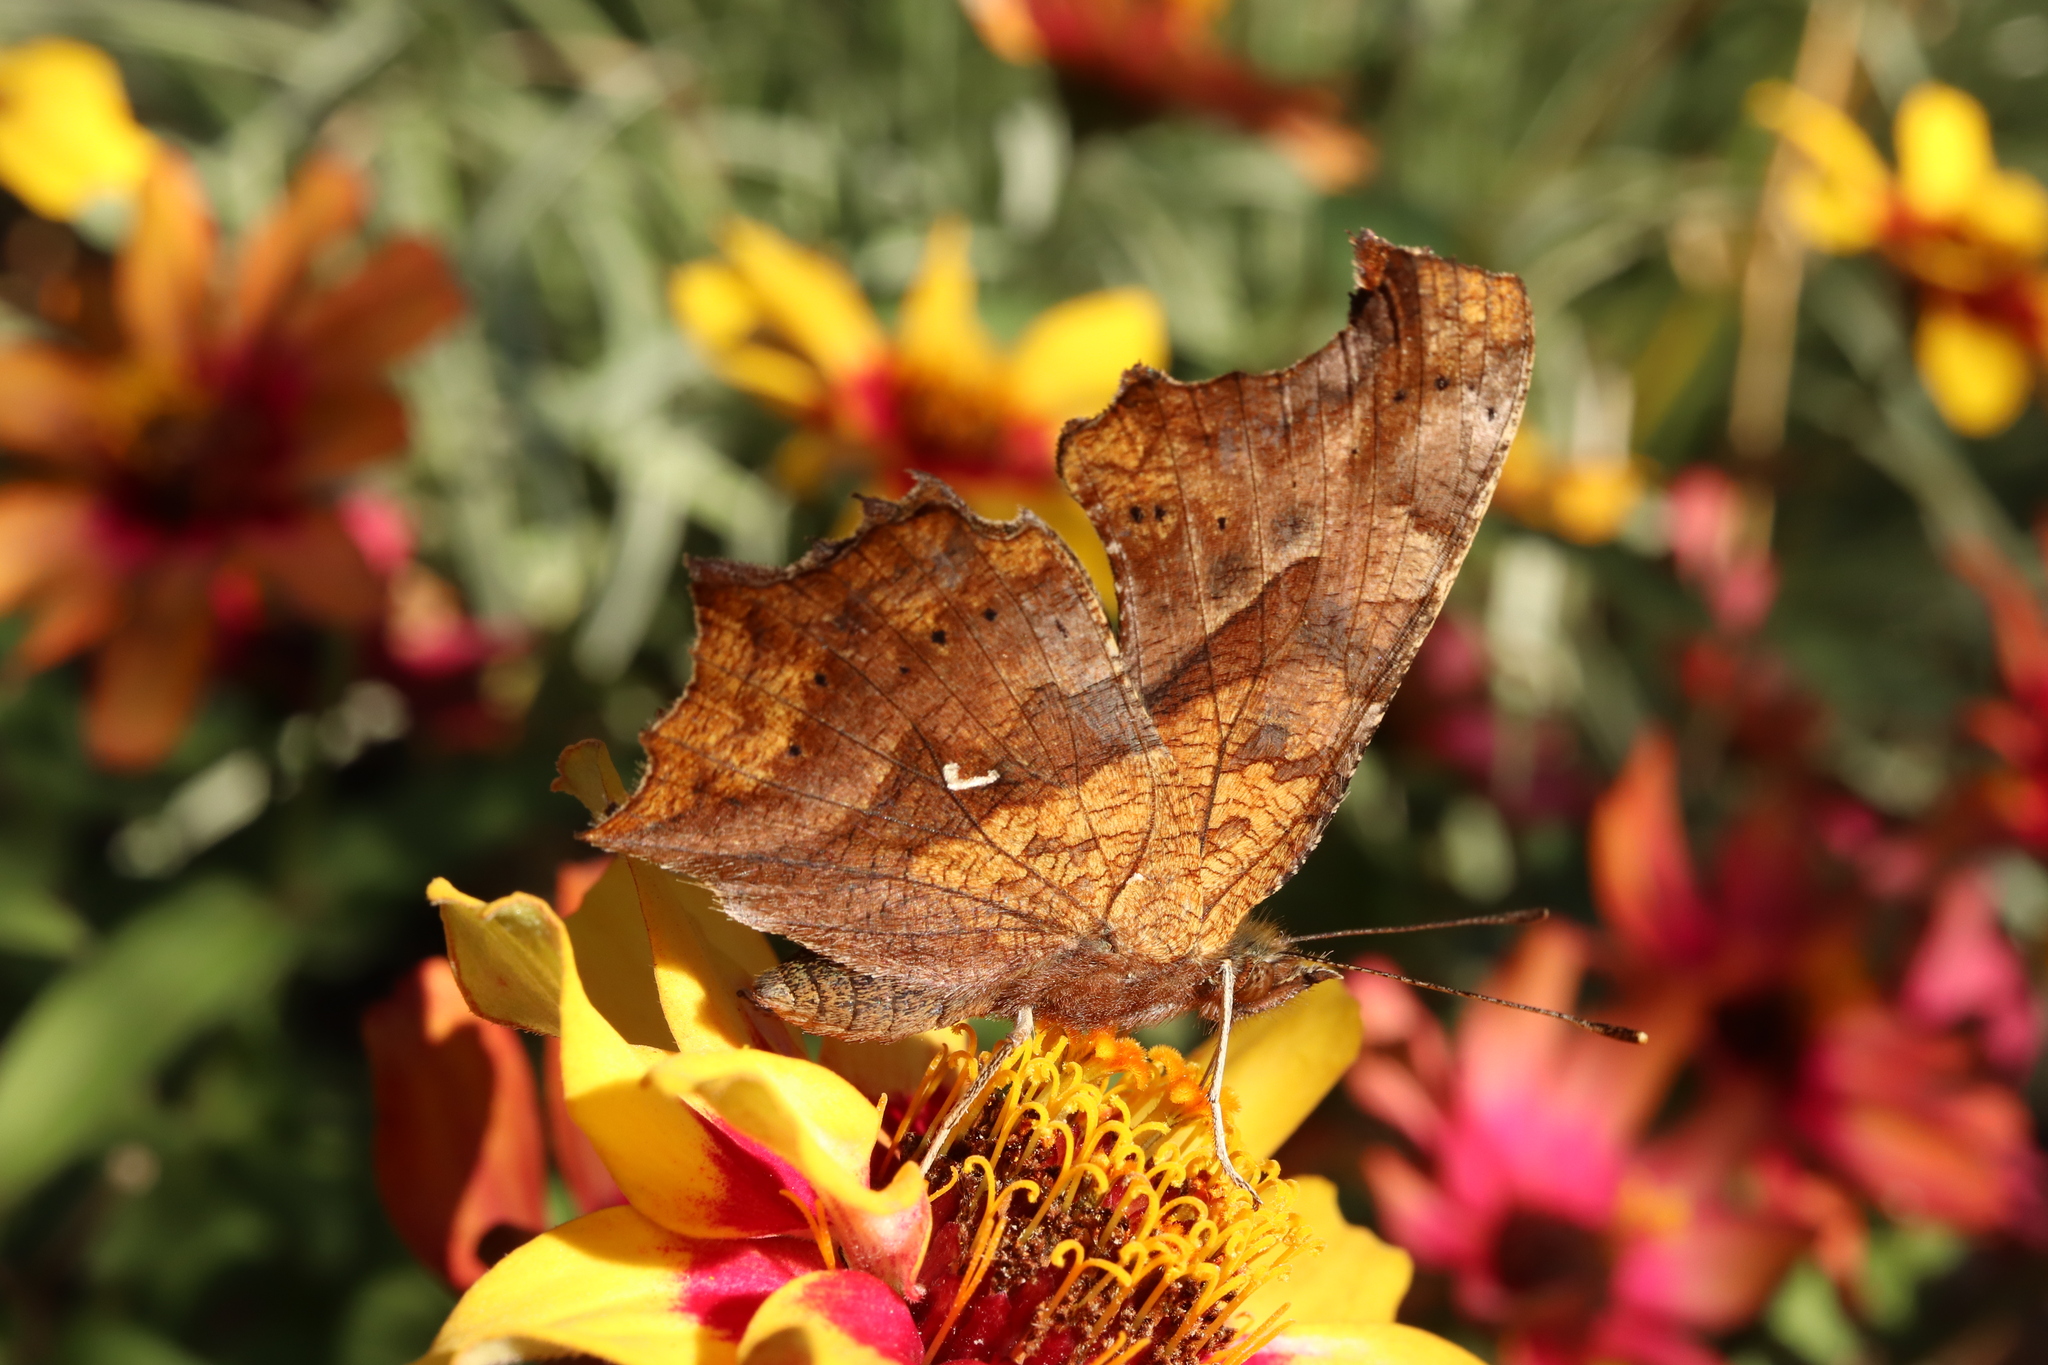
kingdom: Animalia
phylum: Arthropoda
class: Insecta
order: Lepidoptera
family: Nymphalidae
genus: Polygonia
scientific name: Polygonia c-aureum
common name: Asian comma
